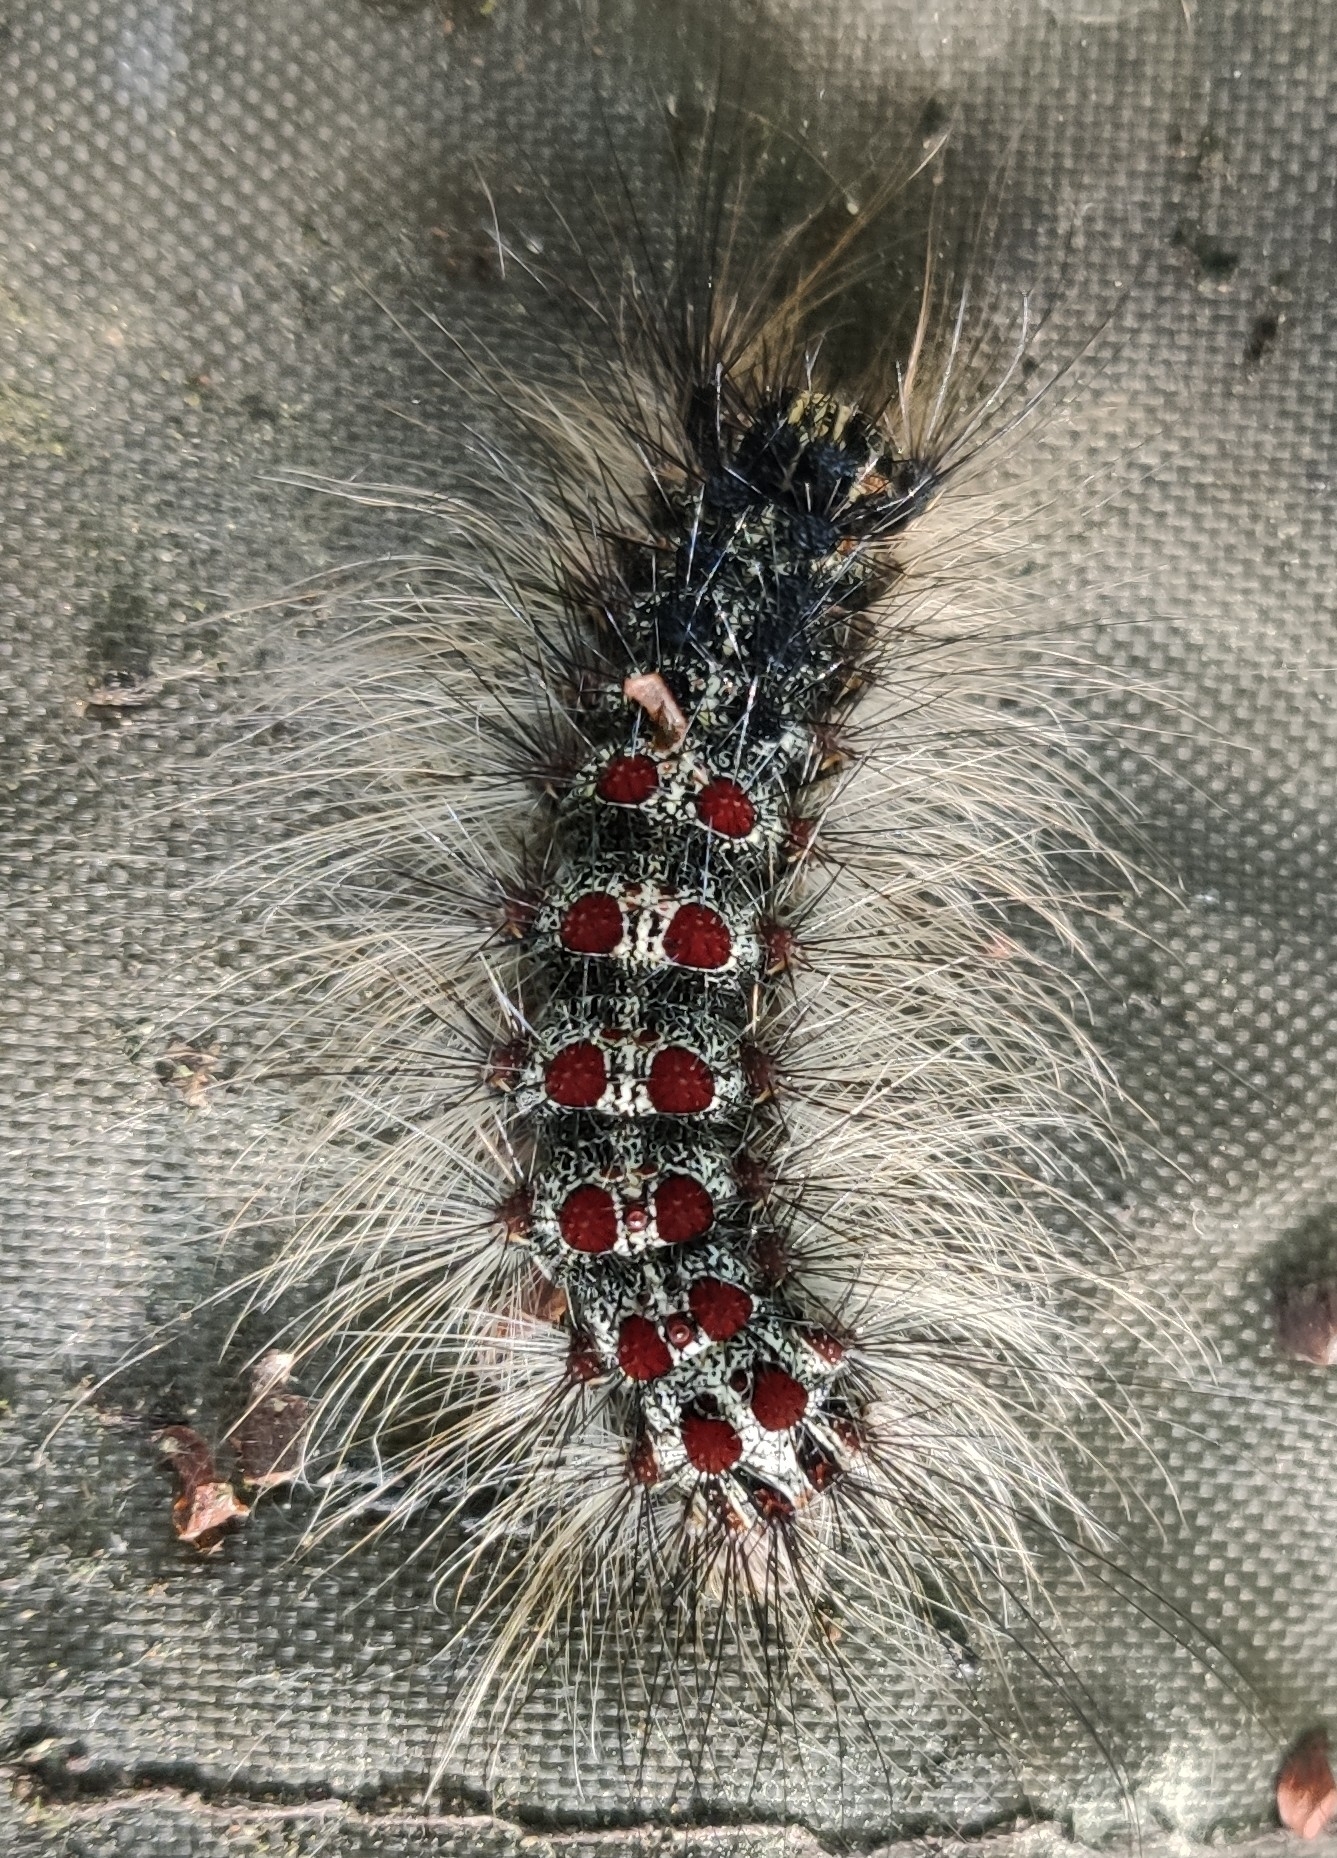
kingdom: Animalia
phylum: Arthropoda
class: Insecta
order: Lepidoptera
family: Erebidae
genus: Lymantria
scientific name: Lymantria dispar
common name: Gypsy moth
